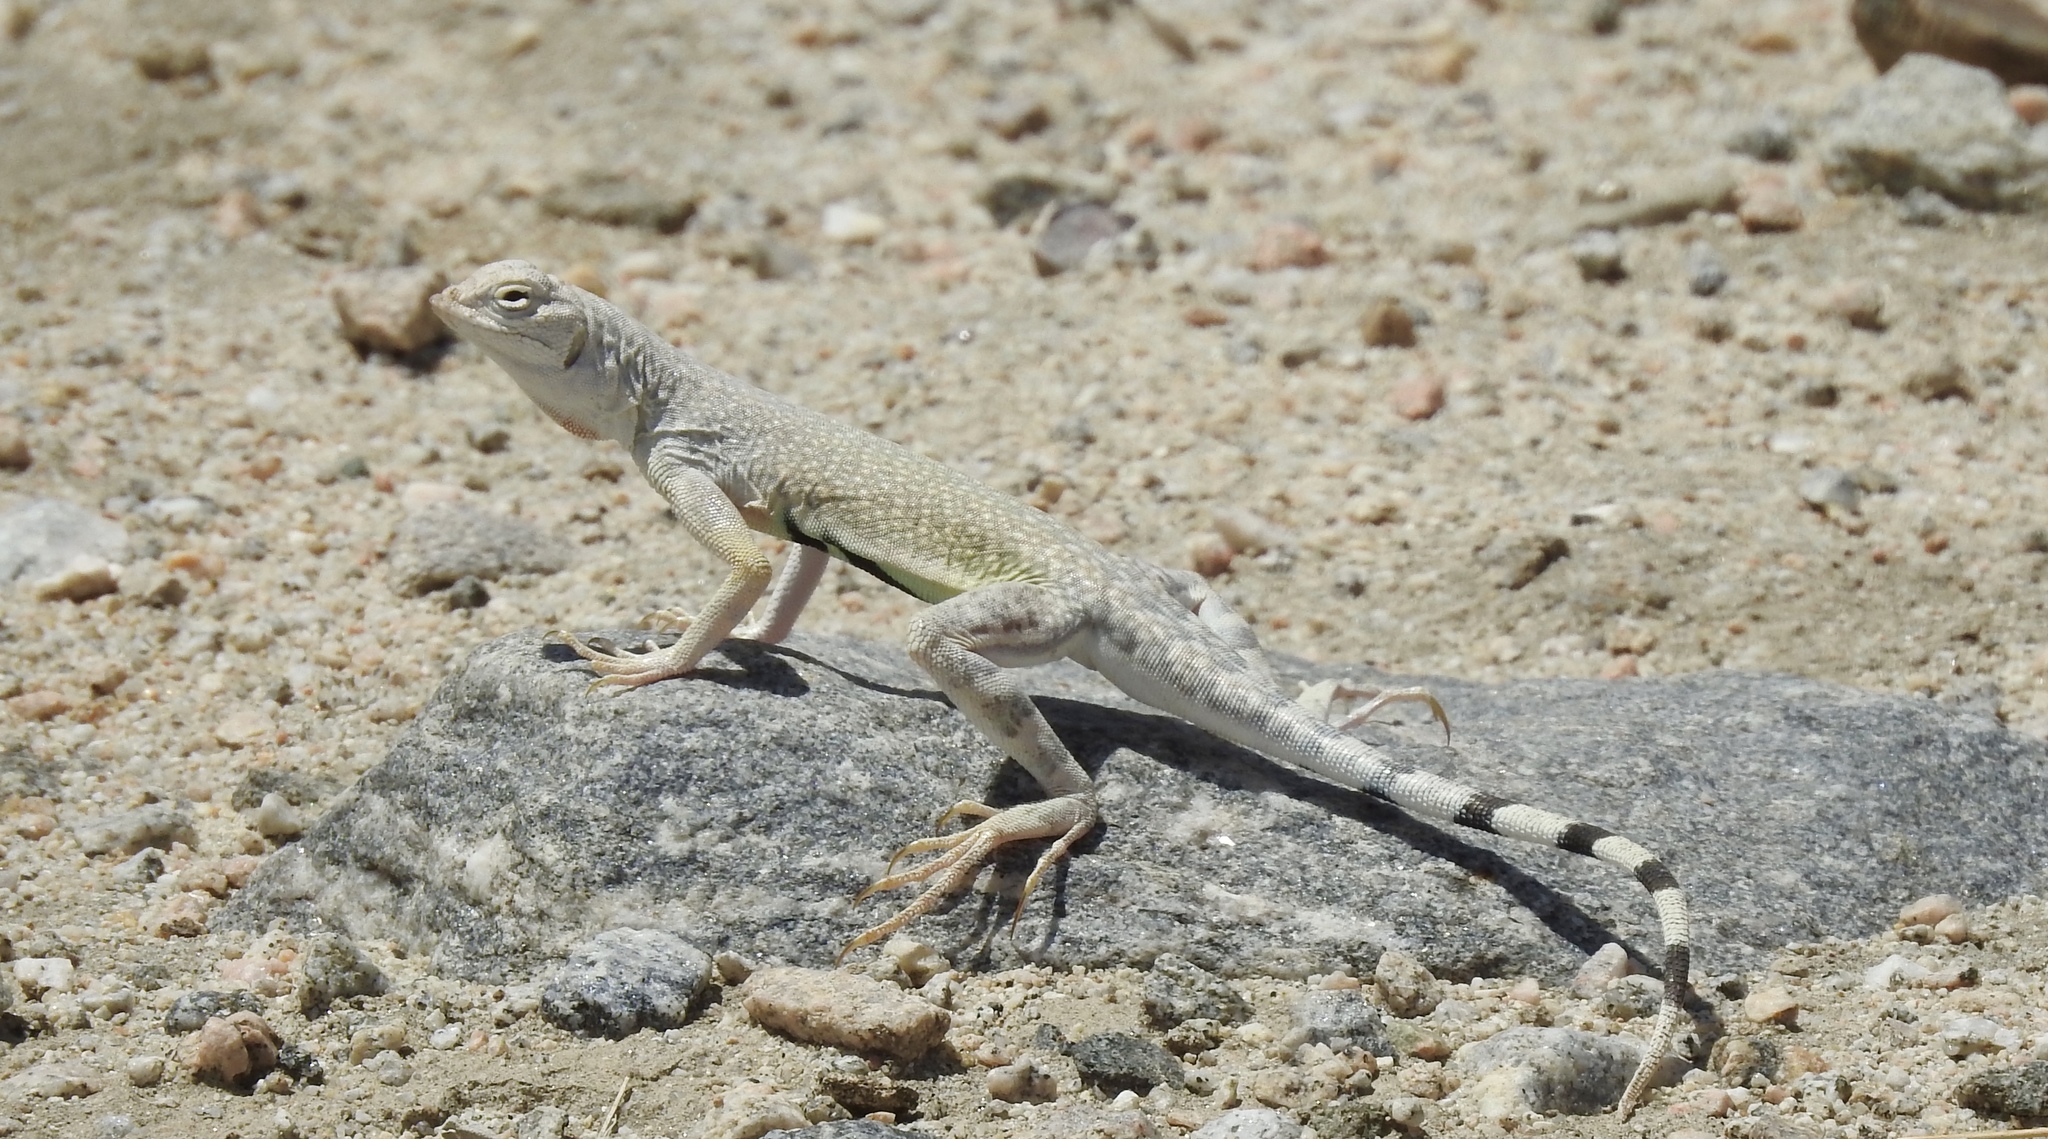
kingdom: Animalia
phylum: Chordata
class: Squamata
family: Phrynosomatidae
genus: Callisaurus
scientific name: Callisaurus draconoides
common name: Zebra-tailed lizard
